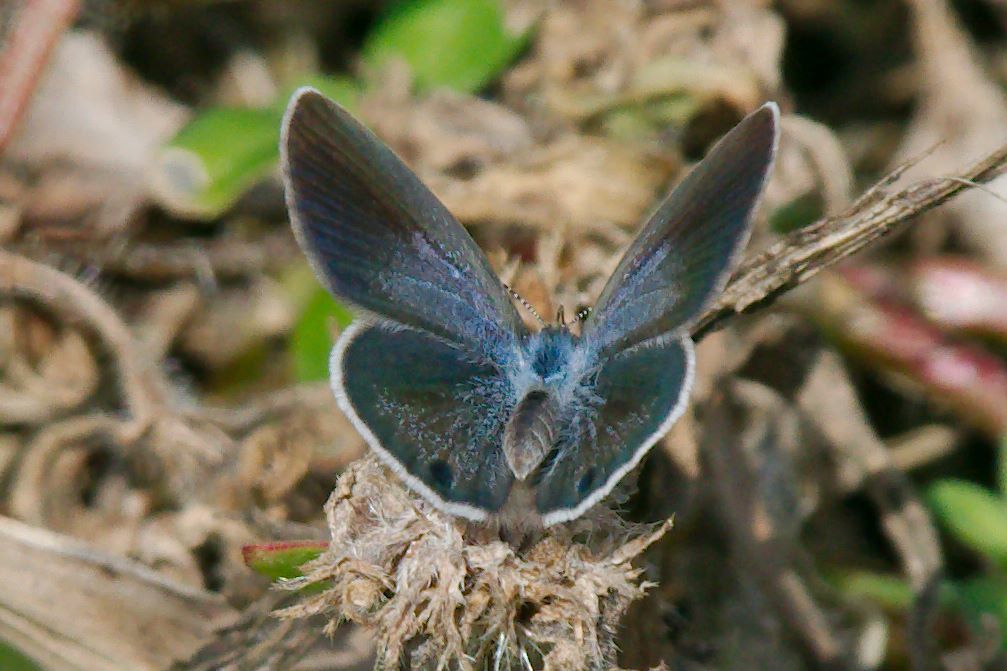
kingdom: Animalia
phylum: Arthropoda
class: Insecta
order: Lepidoptera
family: Lycaenidae
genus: Hemiargus
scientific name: Hemiargus ceraunus
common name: Ceraunus blue
